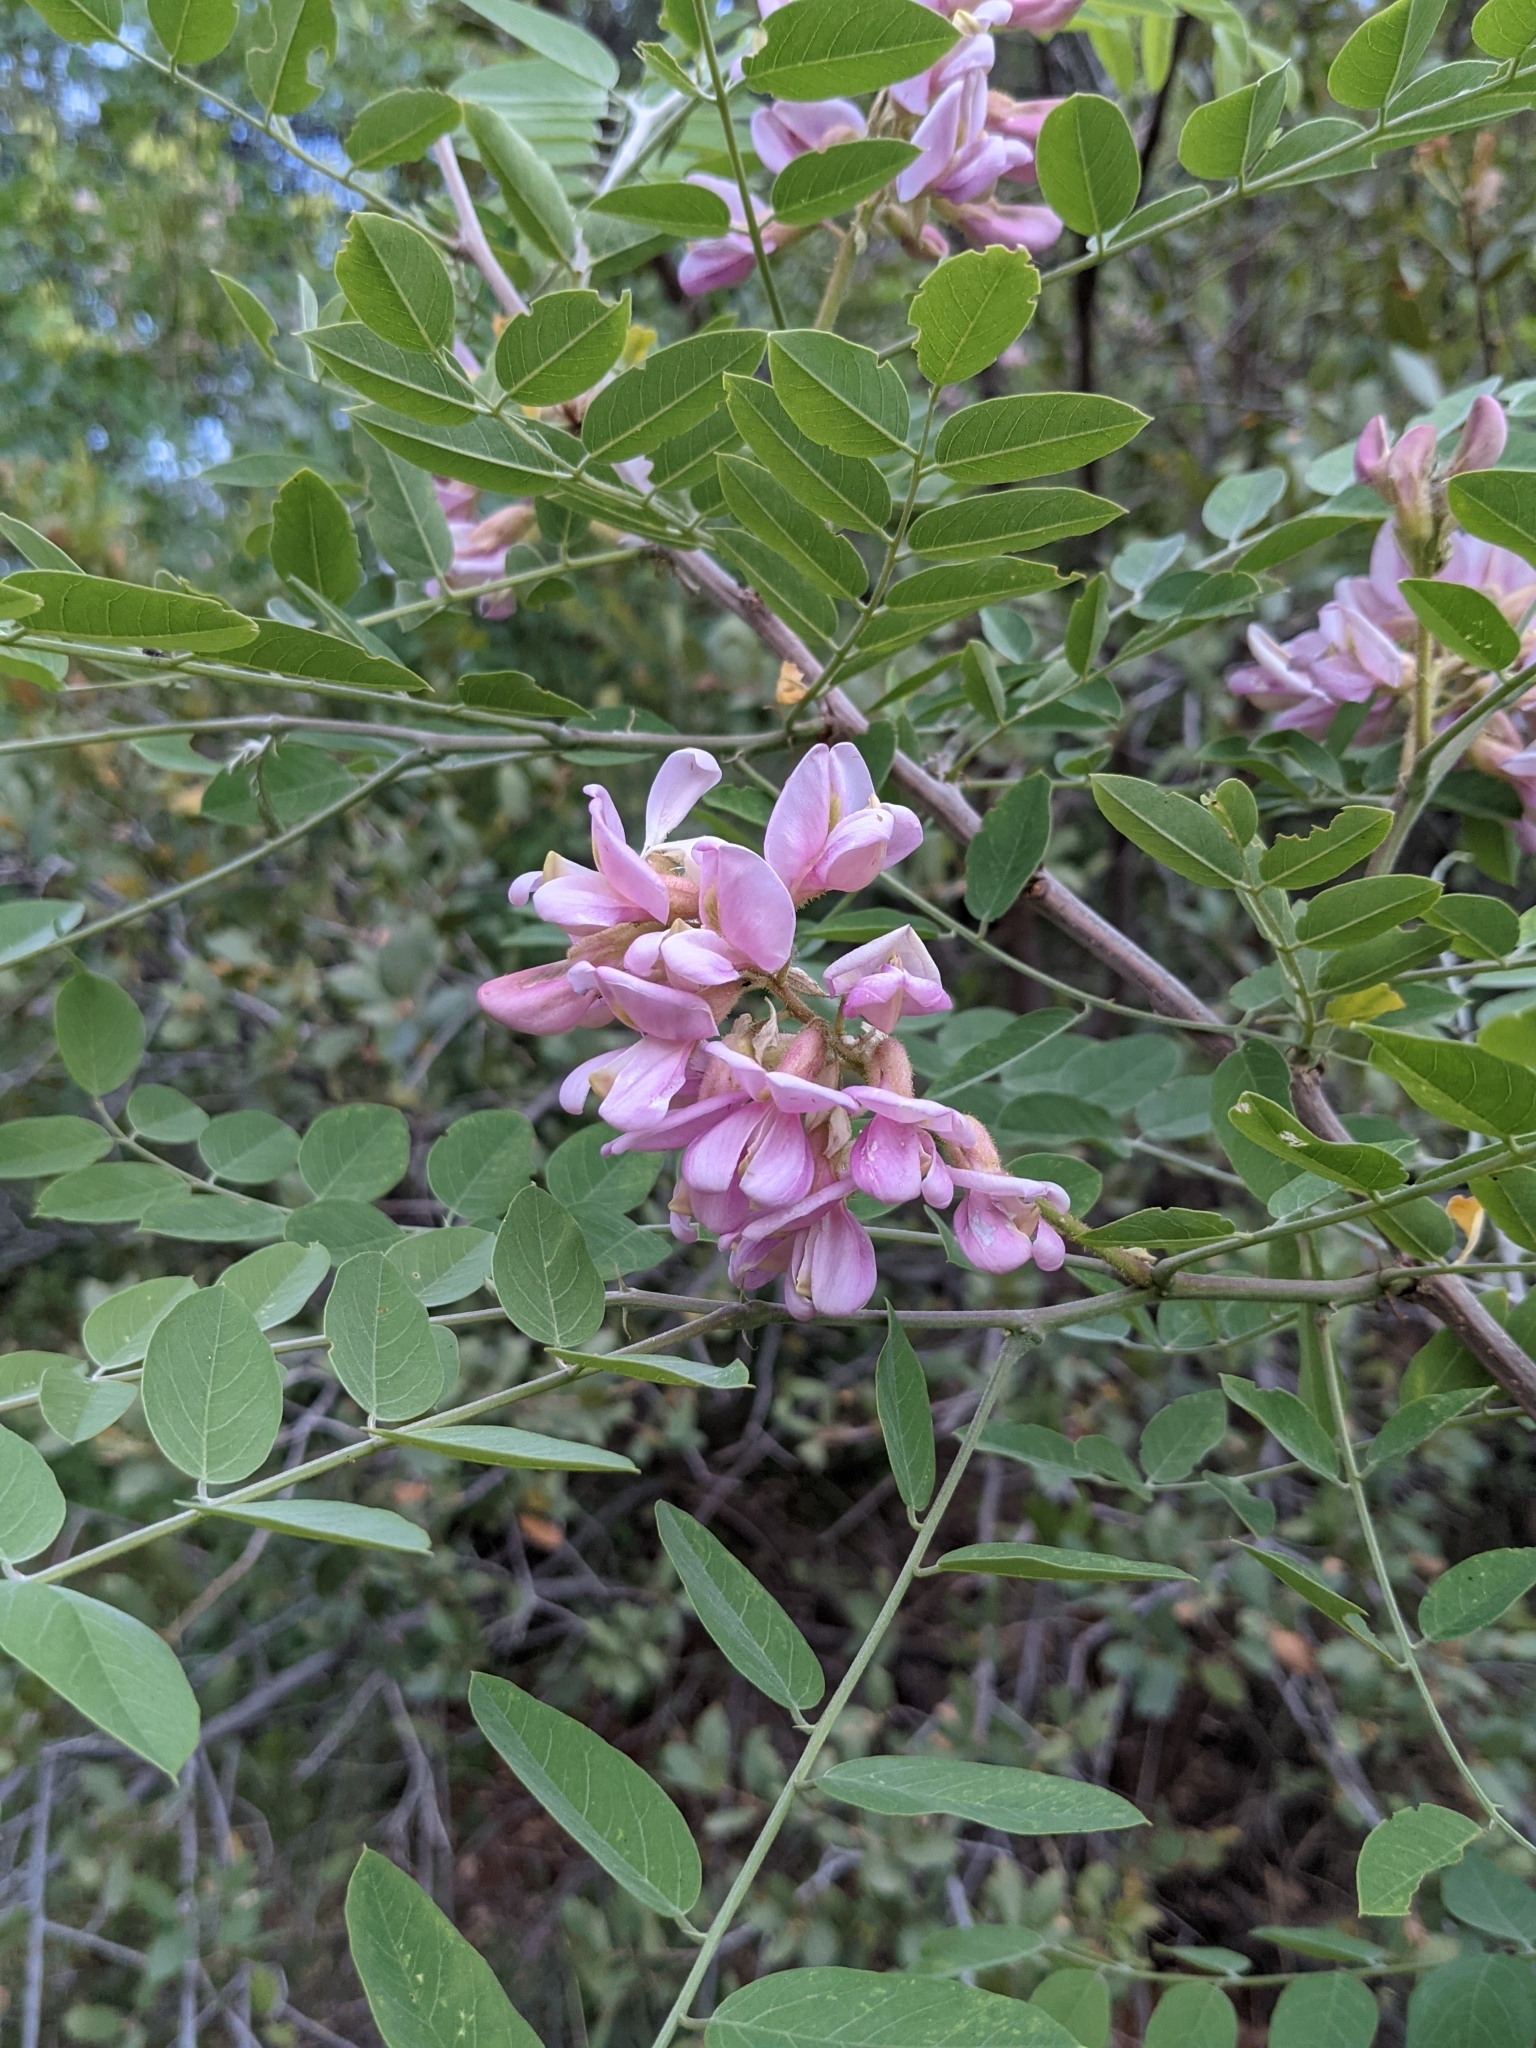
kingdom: Plantae
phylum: Tracheophyta
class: Magnoliopsida
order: Fabales
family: Fabaceae
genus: Robinia
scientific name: Robinia neomexicana
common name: New mexico locust
